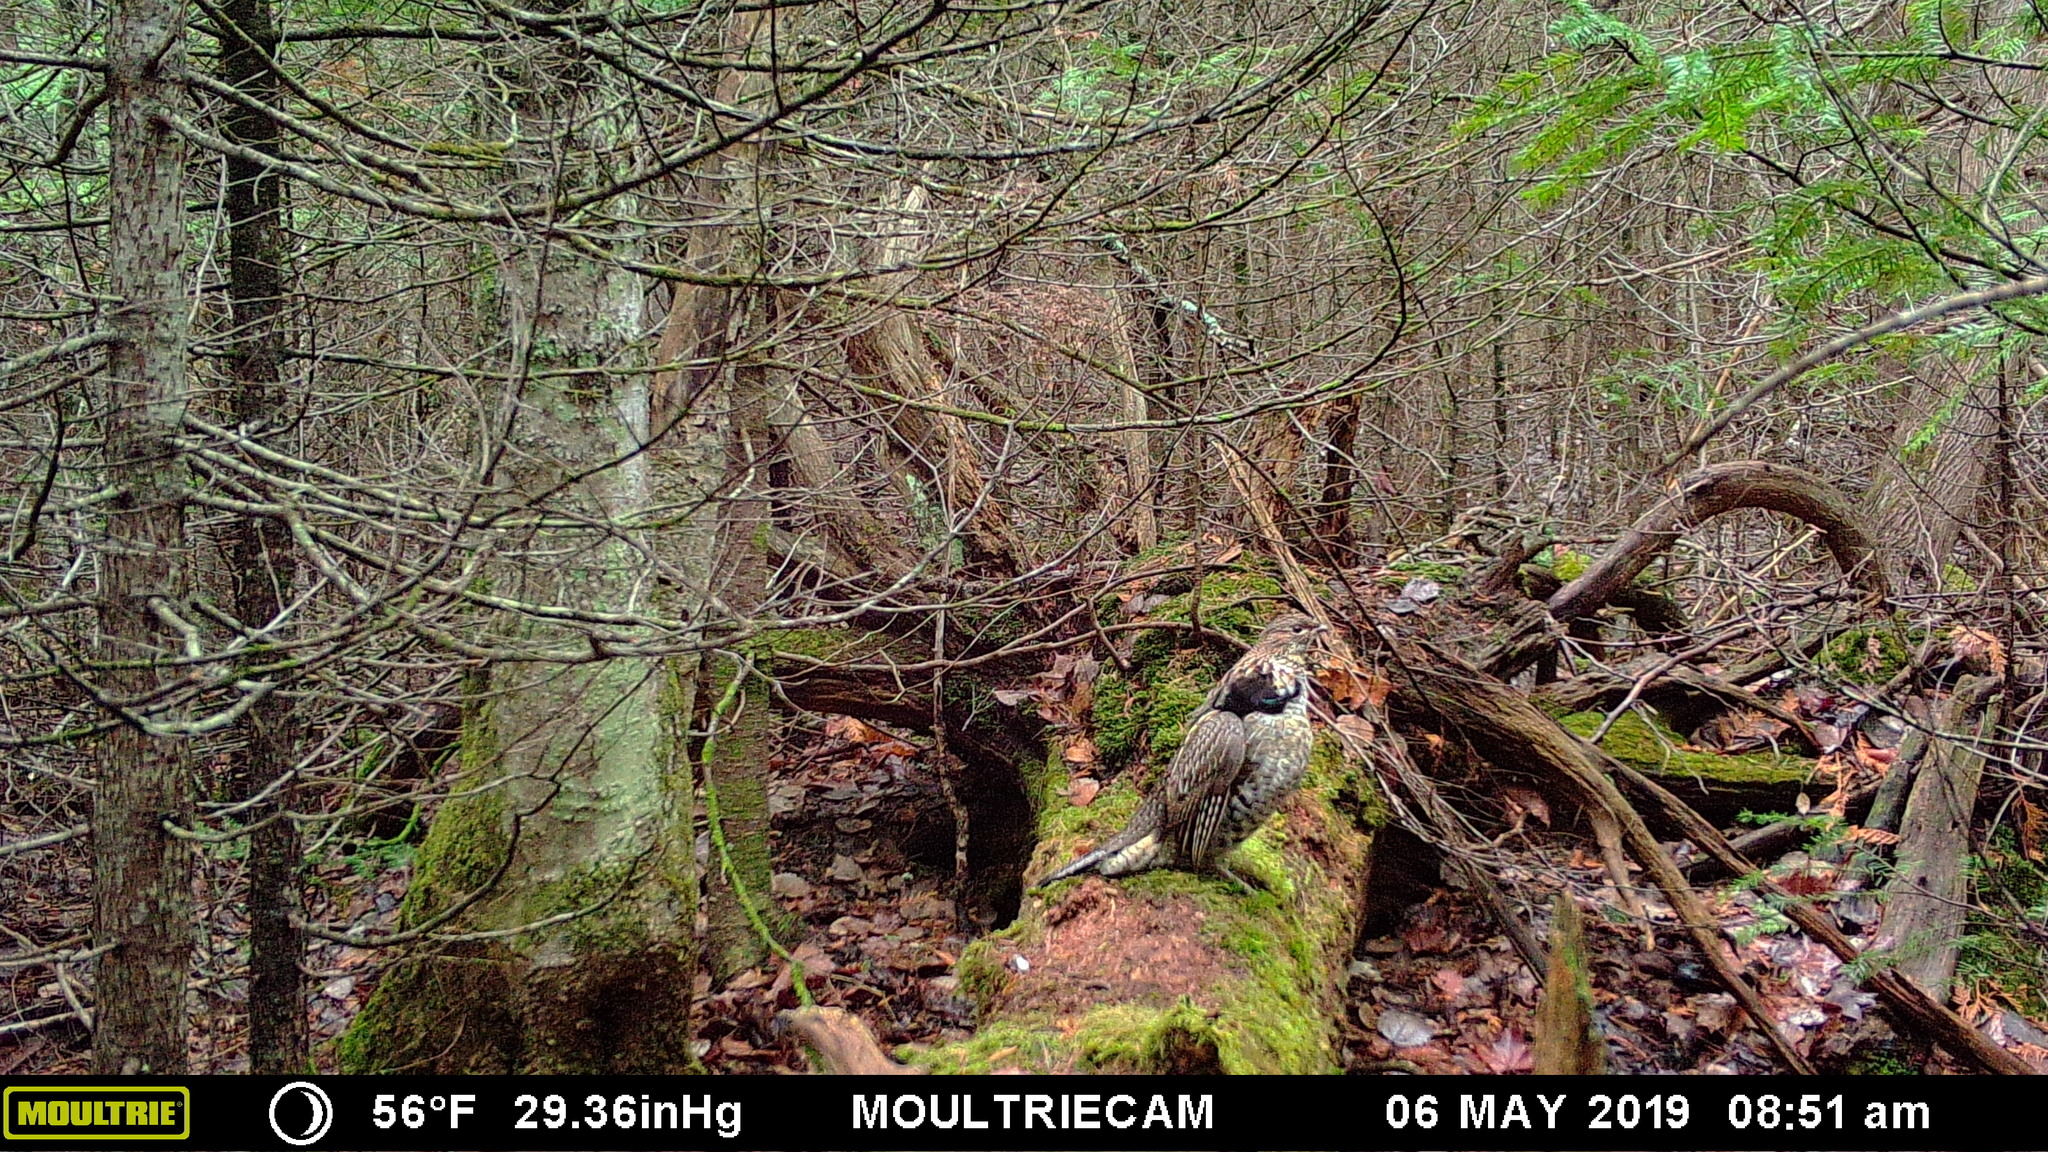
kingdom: Animalia
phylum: Chordata
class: Aves
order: Galliformes
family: Phasianidae
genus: Bonasa
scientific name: Bonasa umbellus
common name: Ruffed grouse
